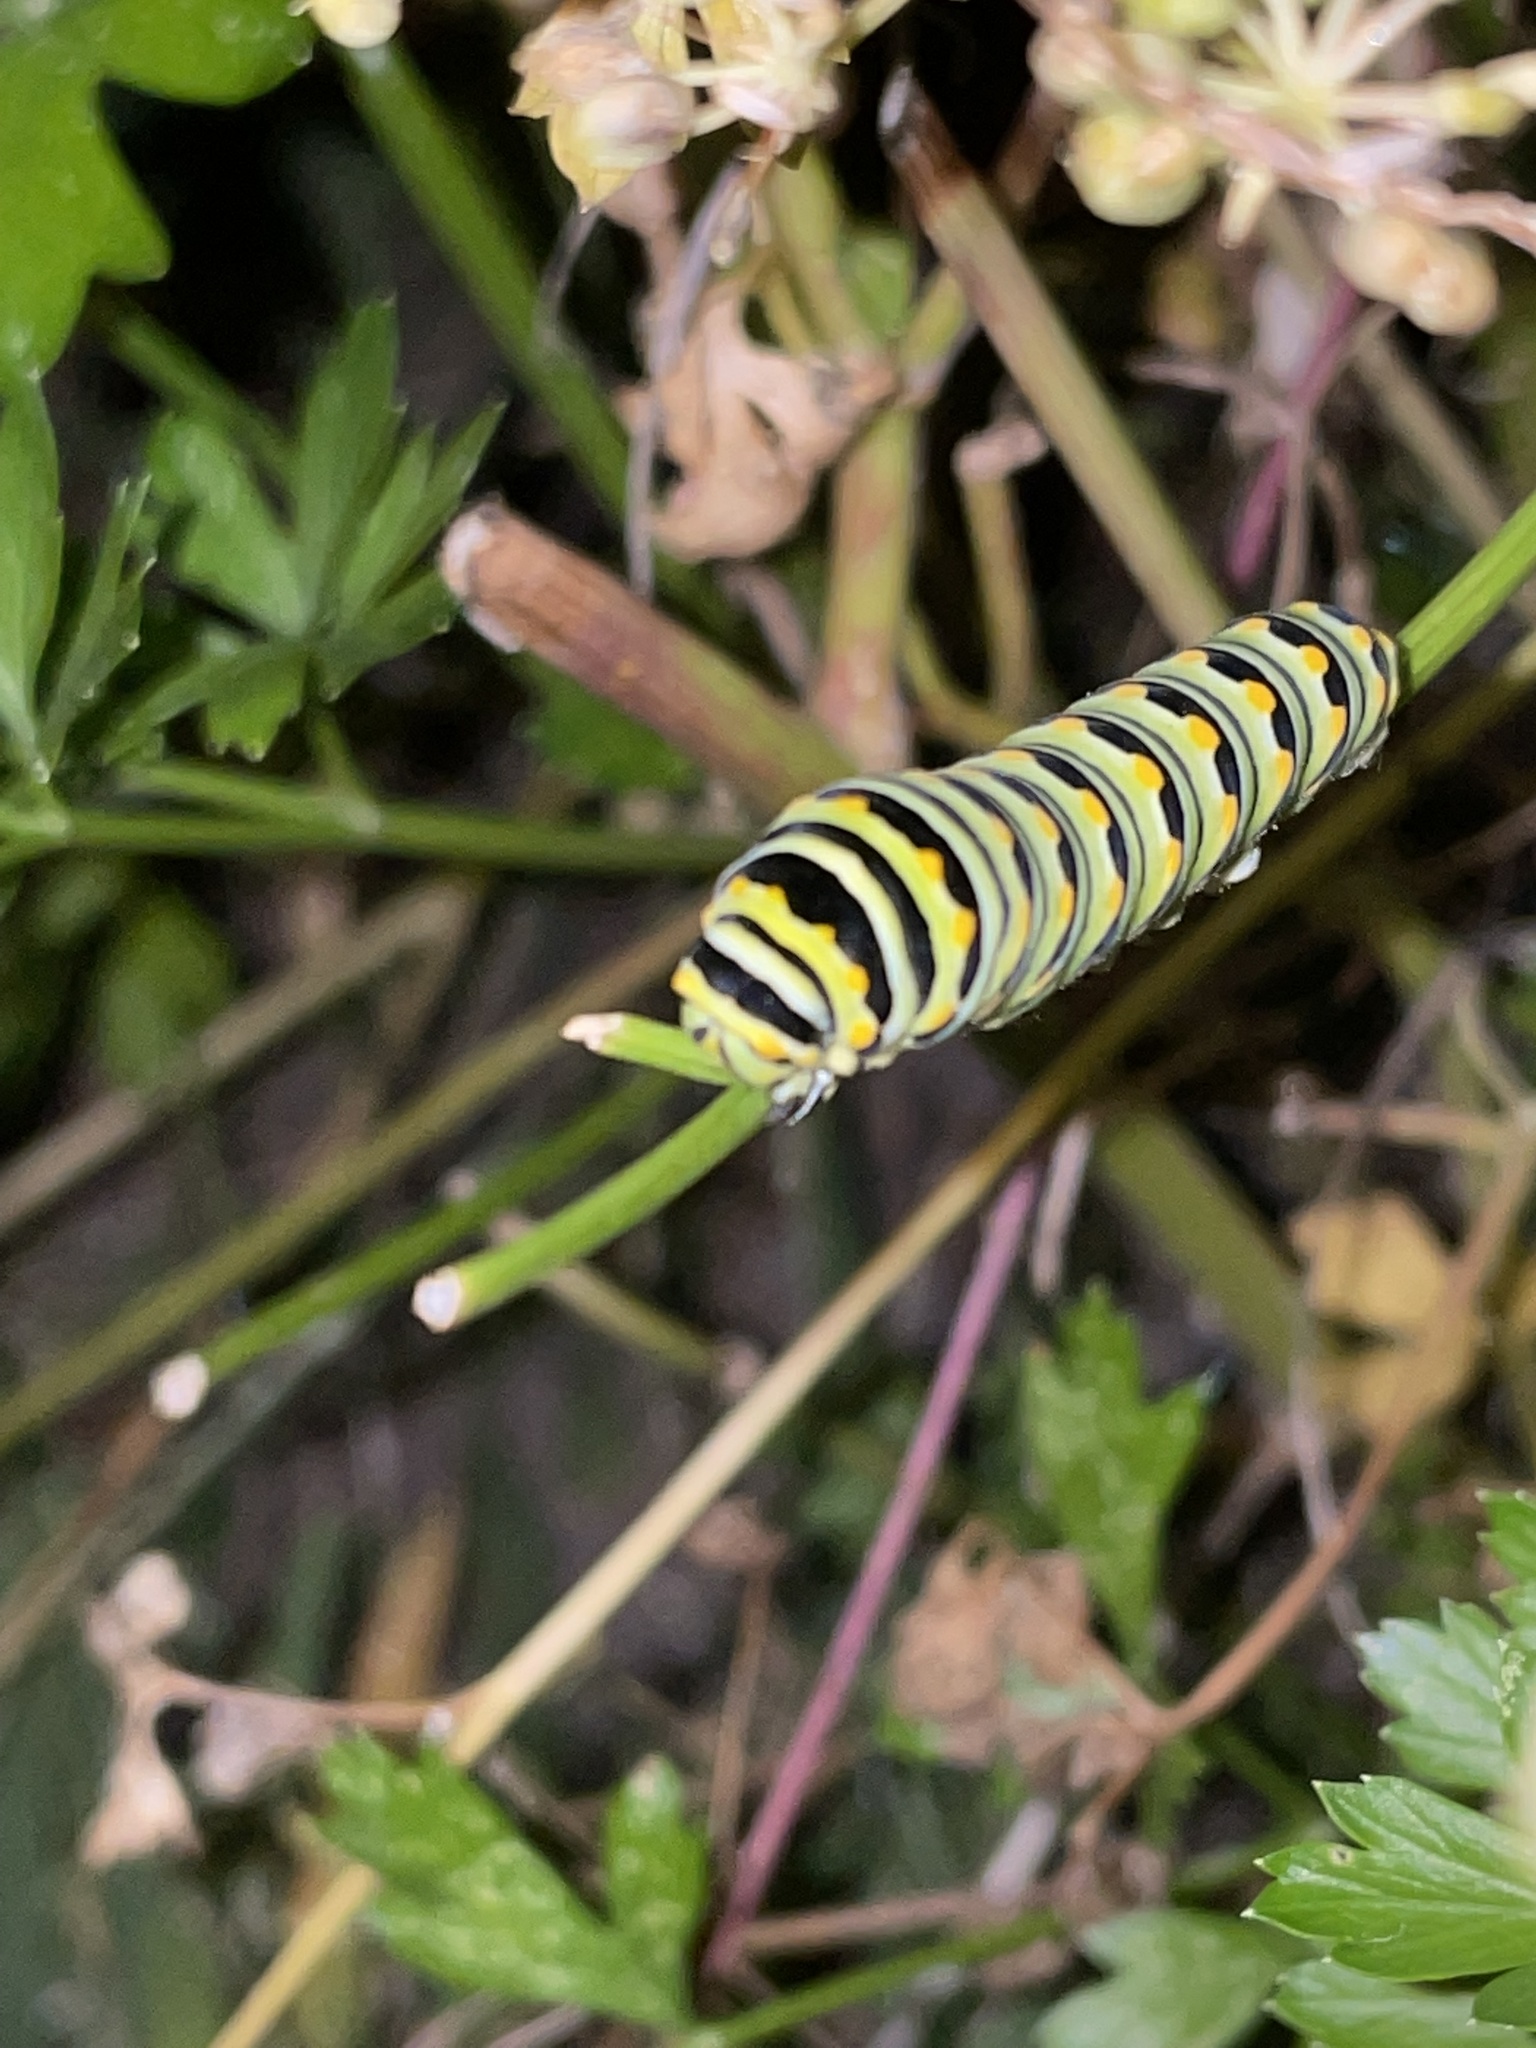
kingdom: Animalia
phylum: Arthropoda
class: Insecta
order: Lepidoptera
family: Papilionidae
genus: Papilio
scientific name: Papilio polyxenes
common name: Black swallowtail
